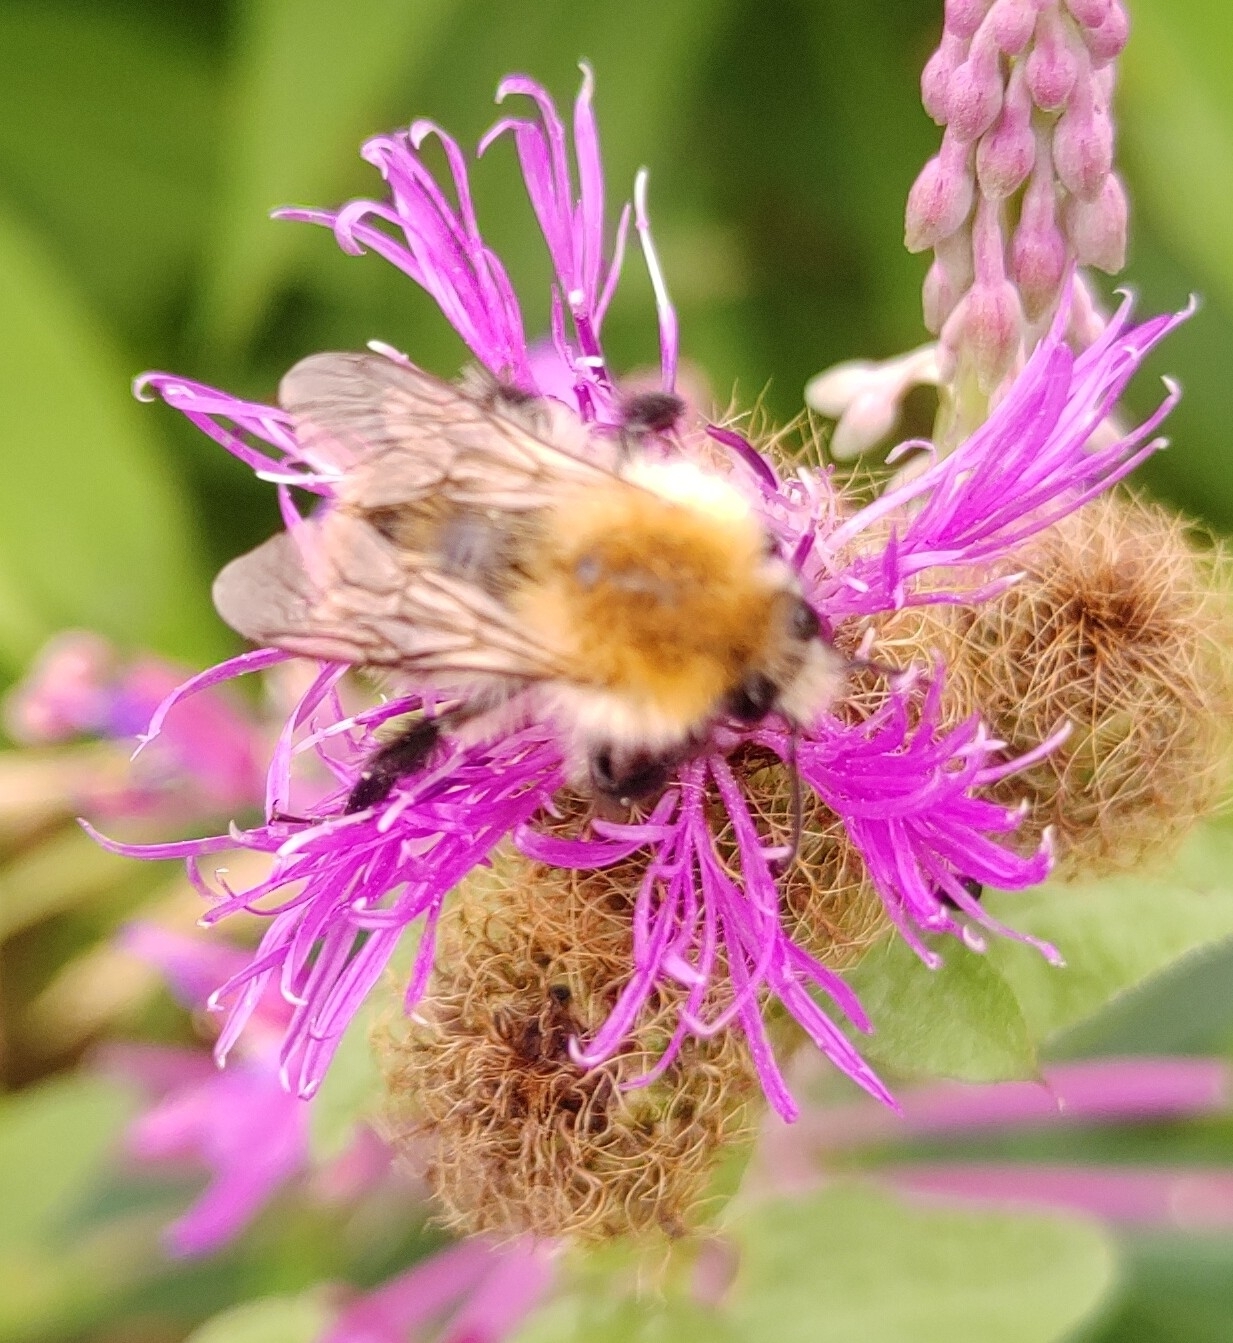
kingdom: Animalia
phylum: Arthropoda
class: Insecta
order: Hymenoptera
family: Apidae
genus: Bombus
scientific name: Bombus pascuorum
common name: Common carder bee
